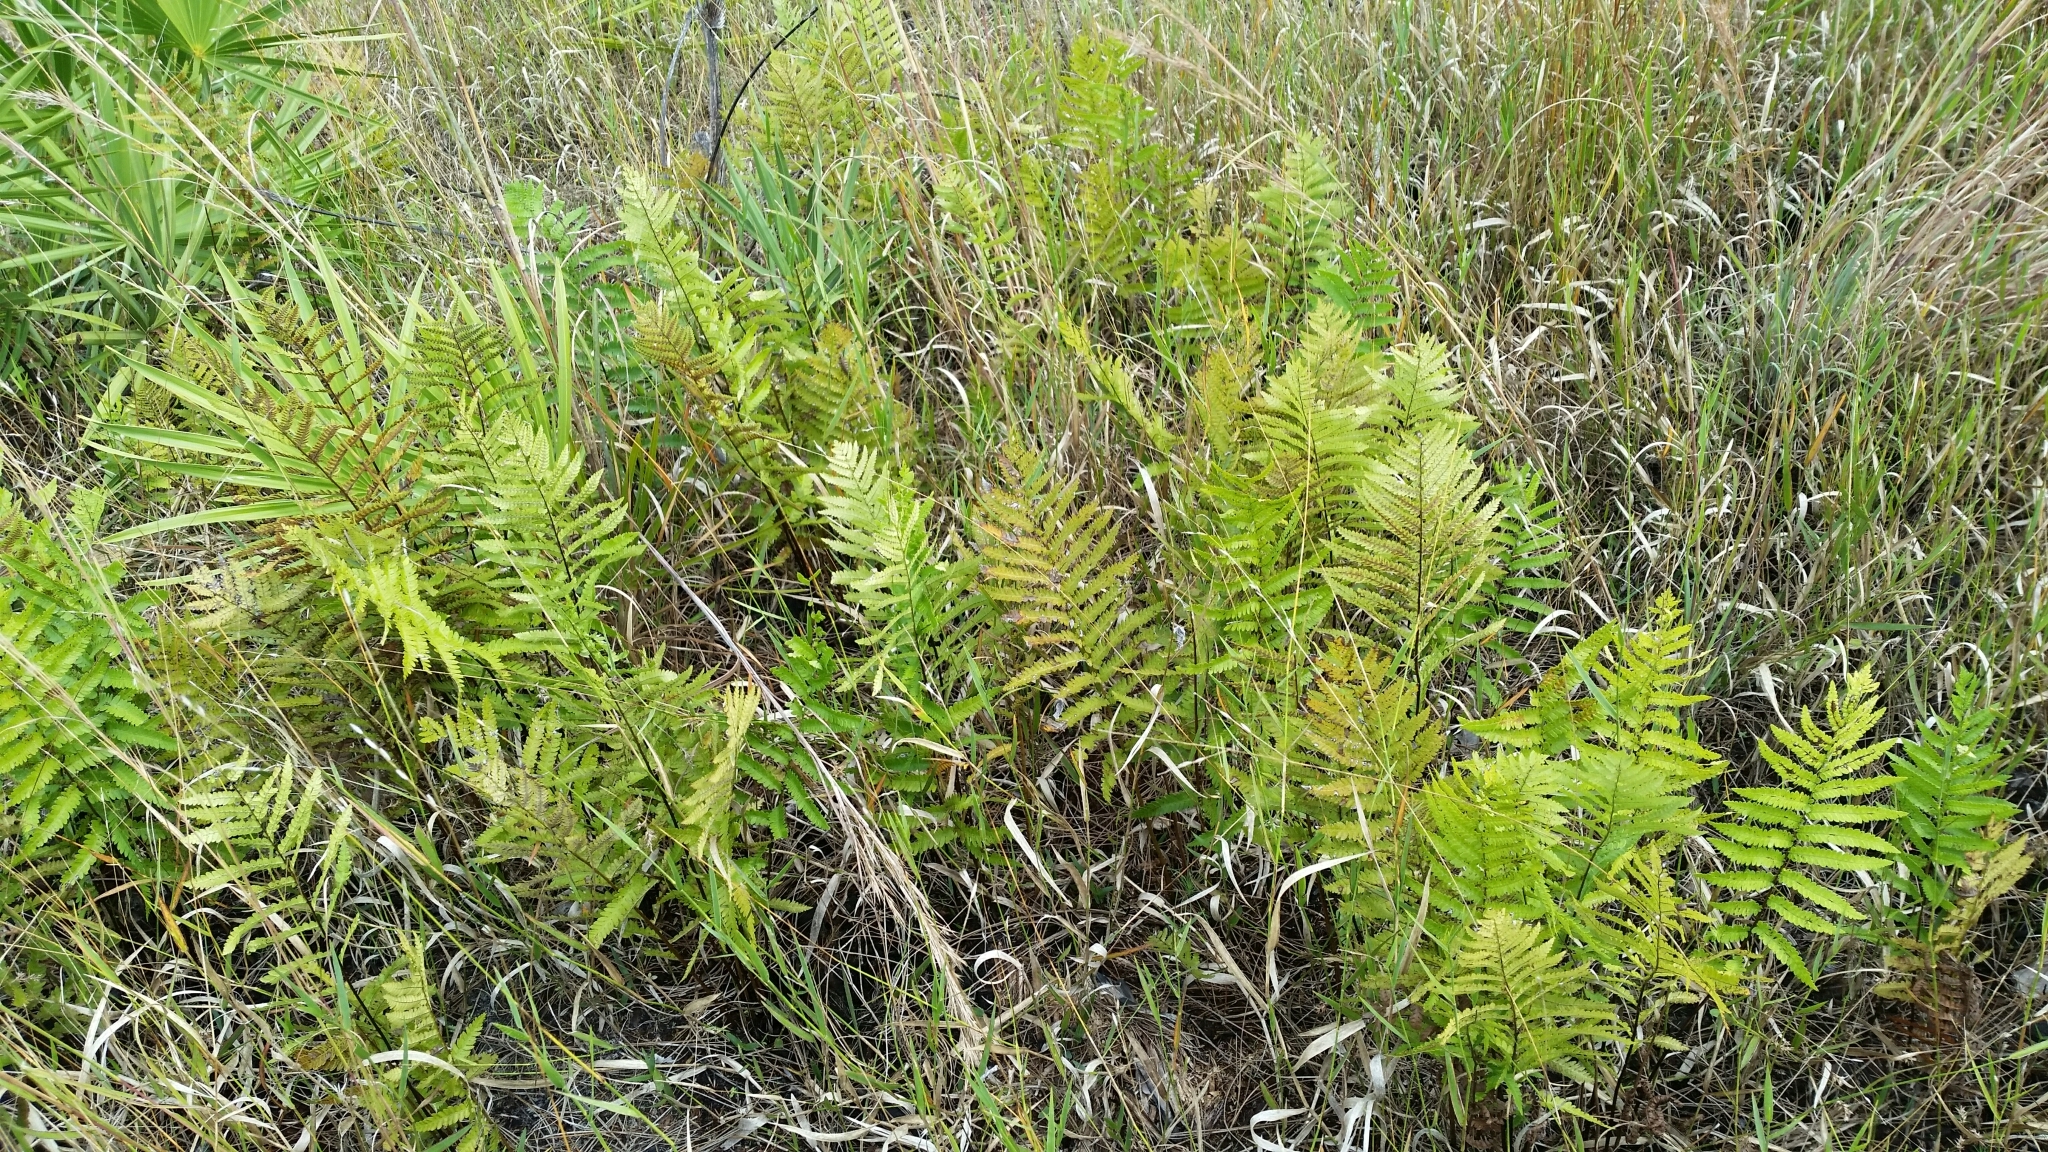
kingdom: Plantae
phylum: Tracheophyta
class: Polypodiopsida
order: Polypodiales
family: Blechnaceae
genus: Anchistea
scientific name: Anchistea virginica
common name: Virginia chain fern
